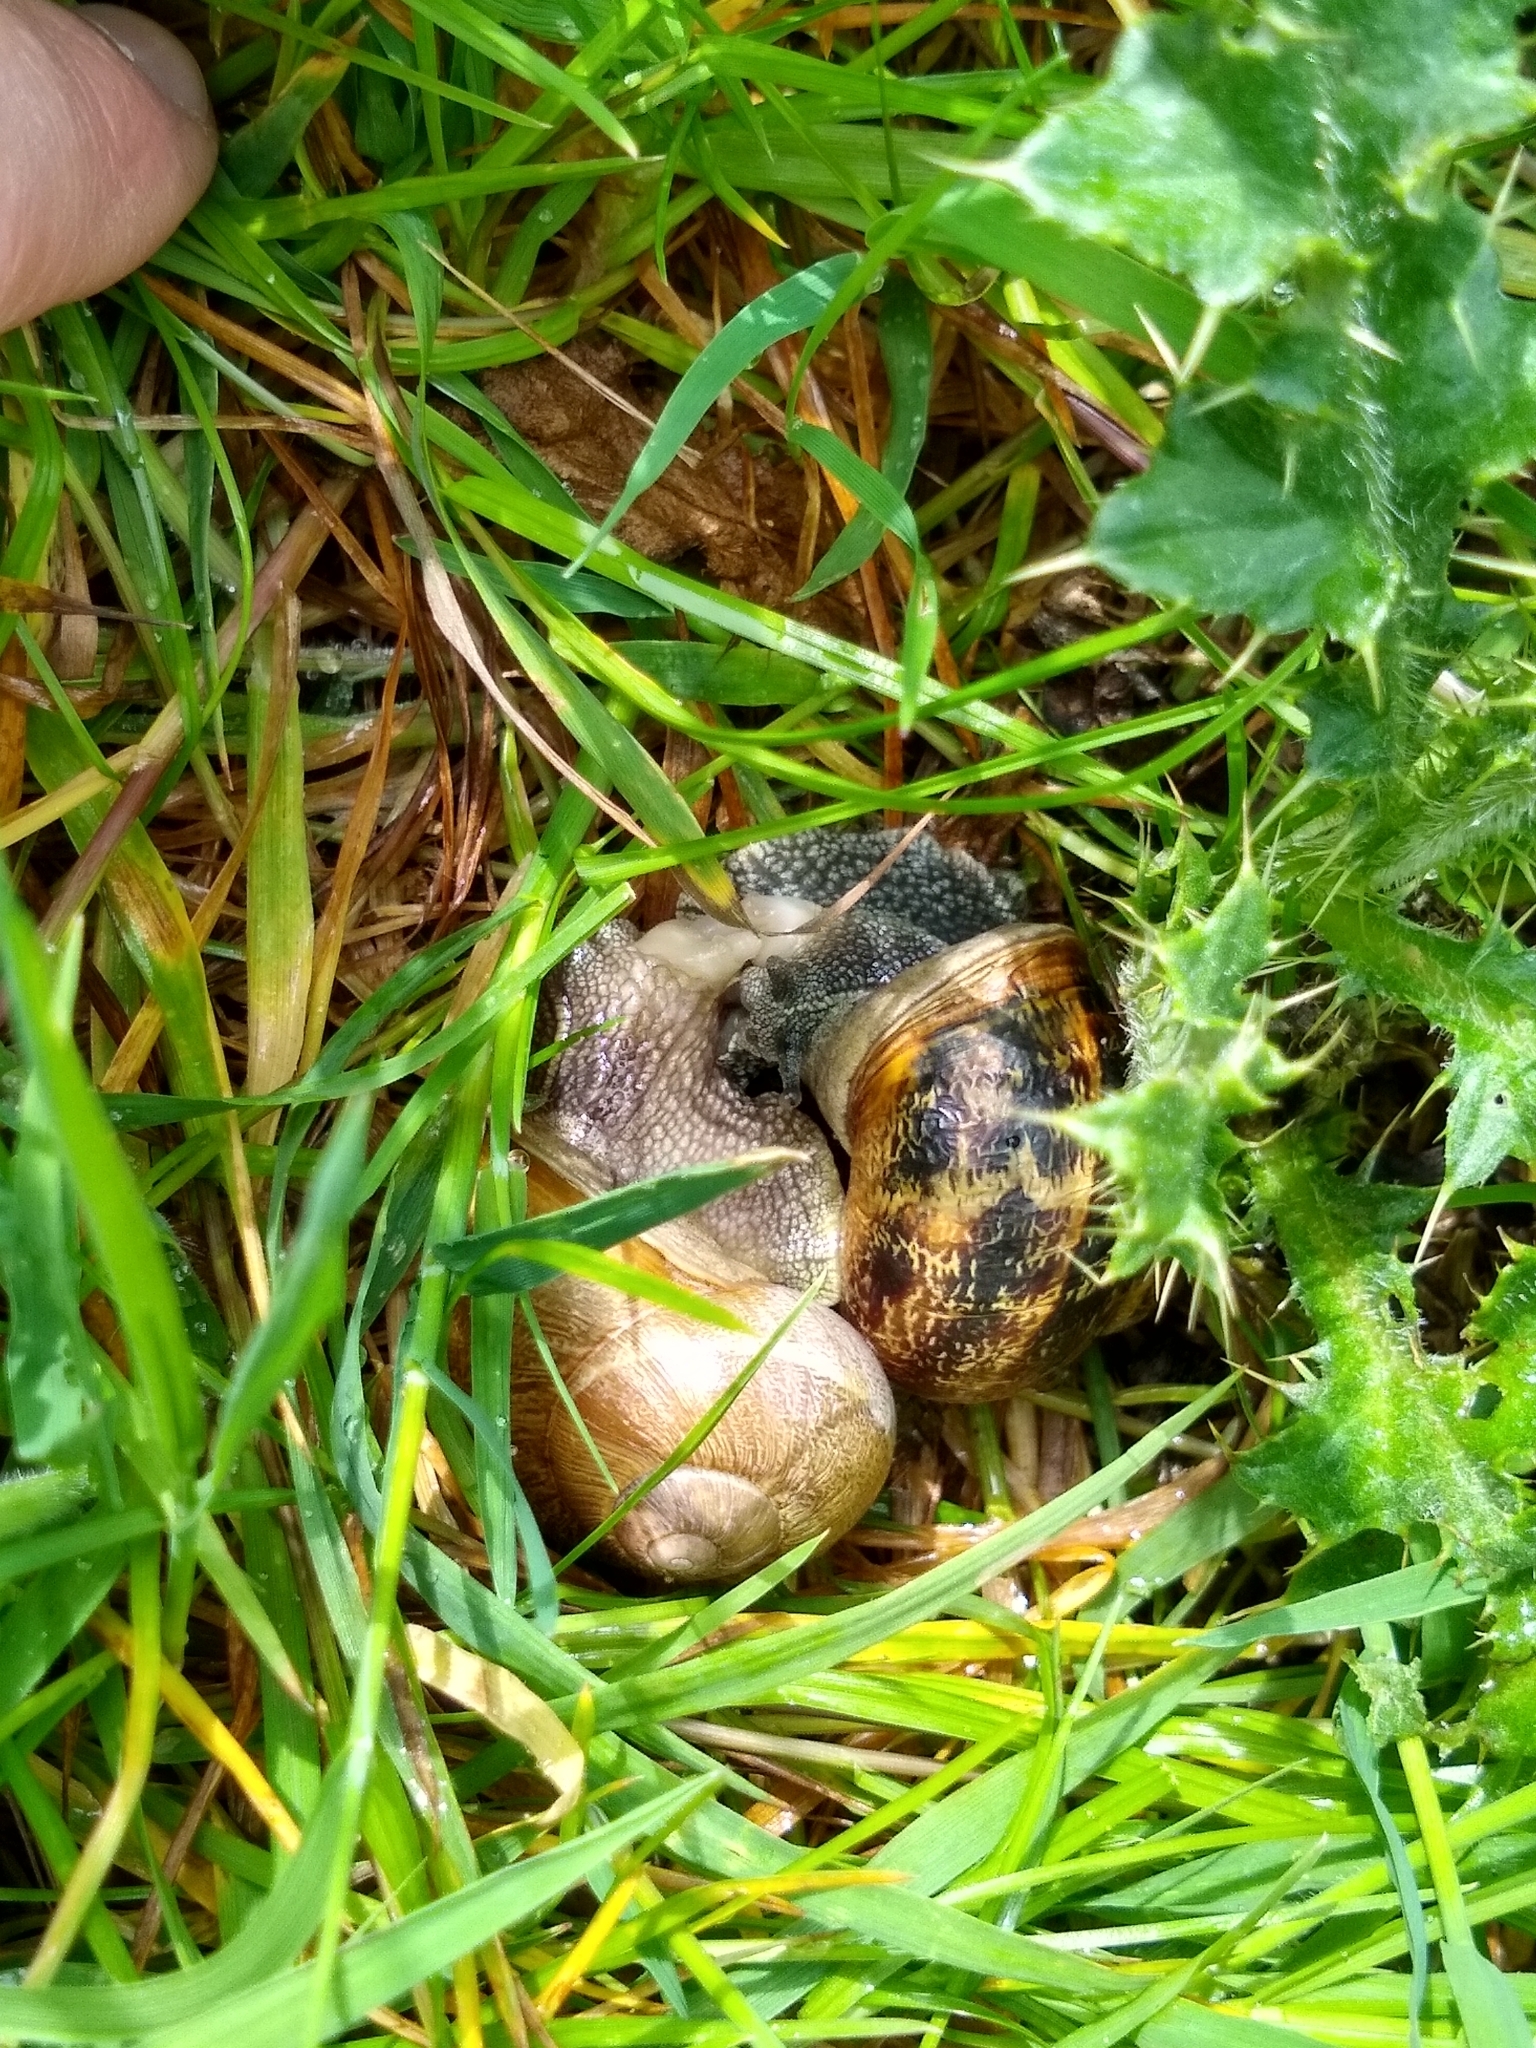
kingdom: Animalia
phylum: Mollusca
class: Gastropoda
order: Stylommatophora
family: Helicidae
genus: Cornu
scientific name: Cornu aspersum
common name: Brown garden snail
